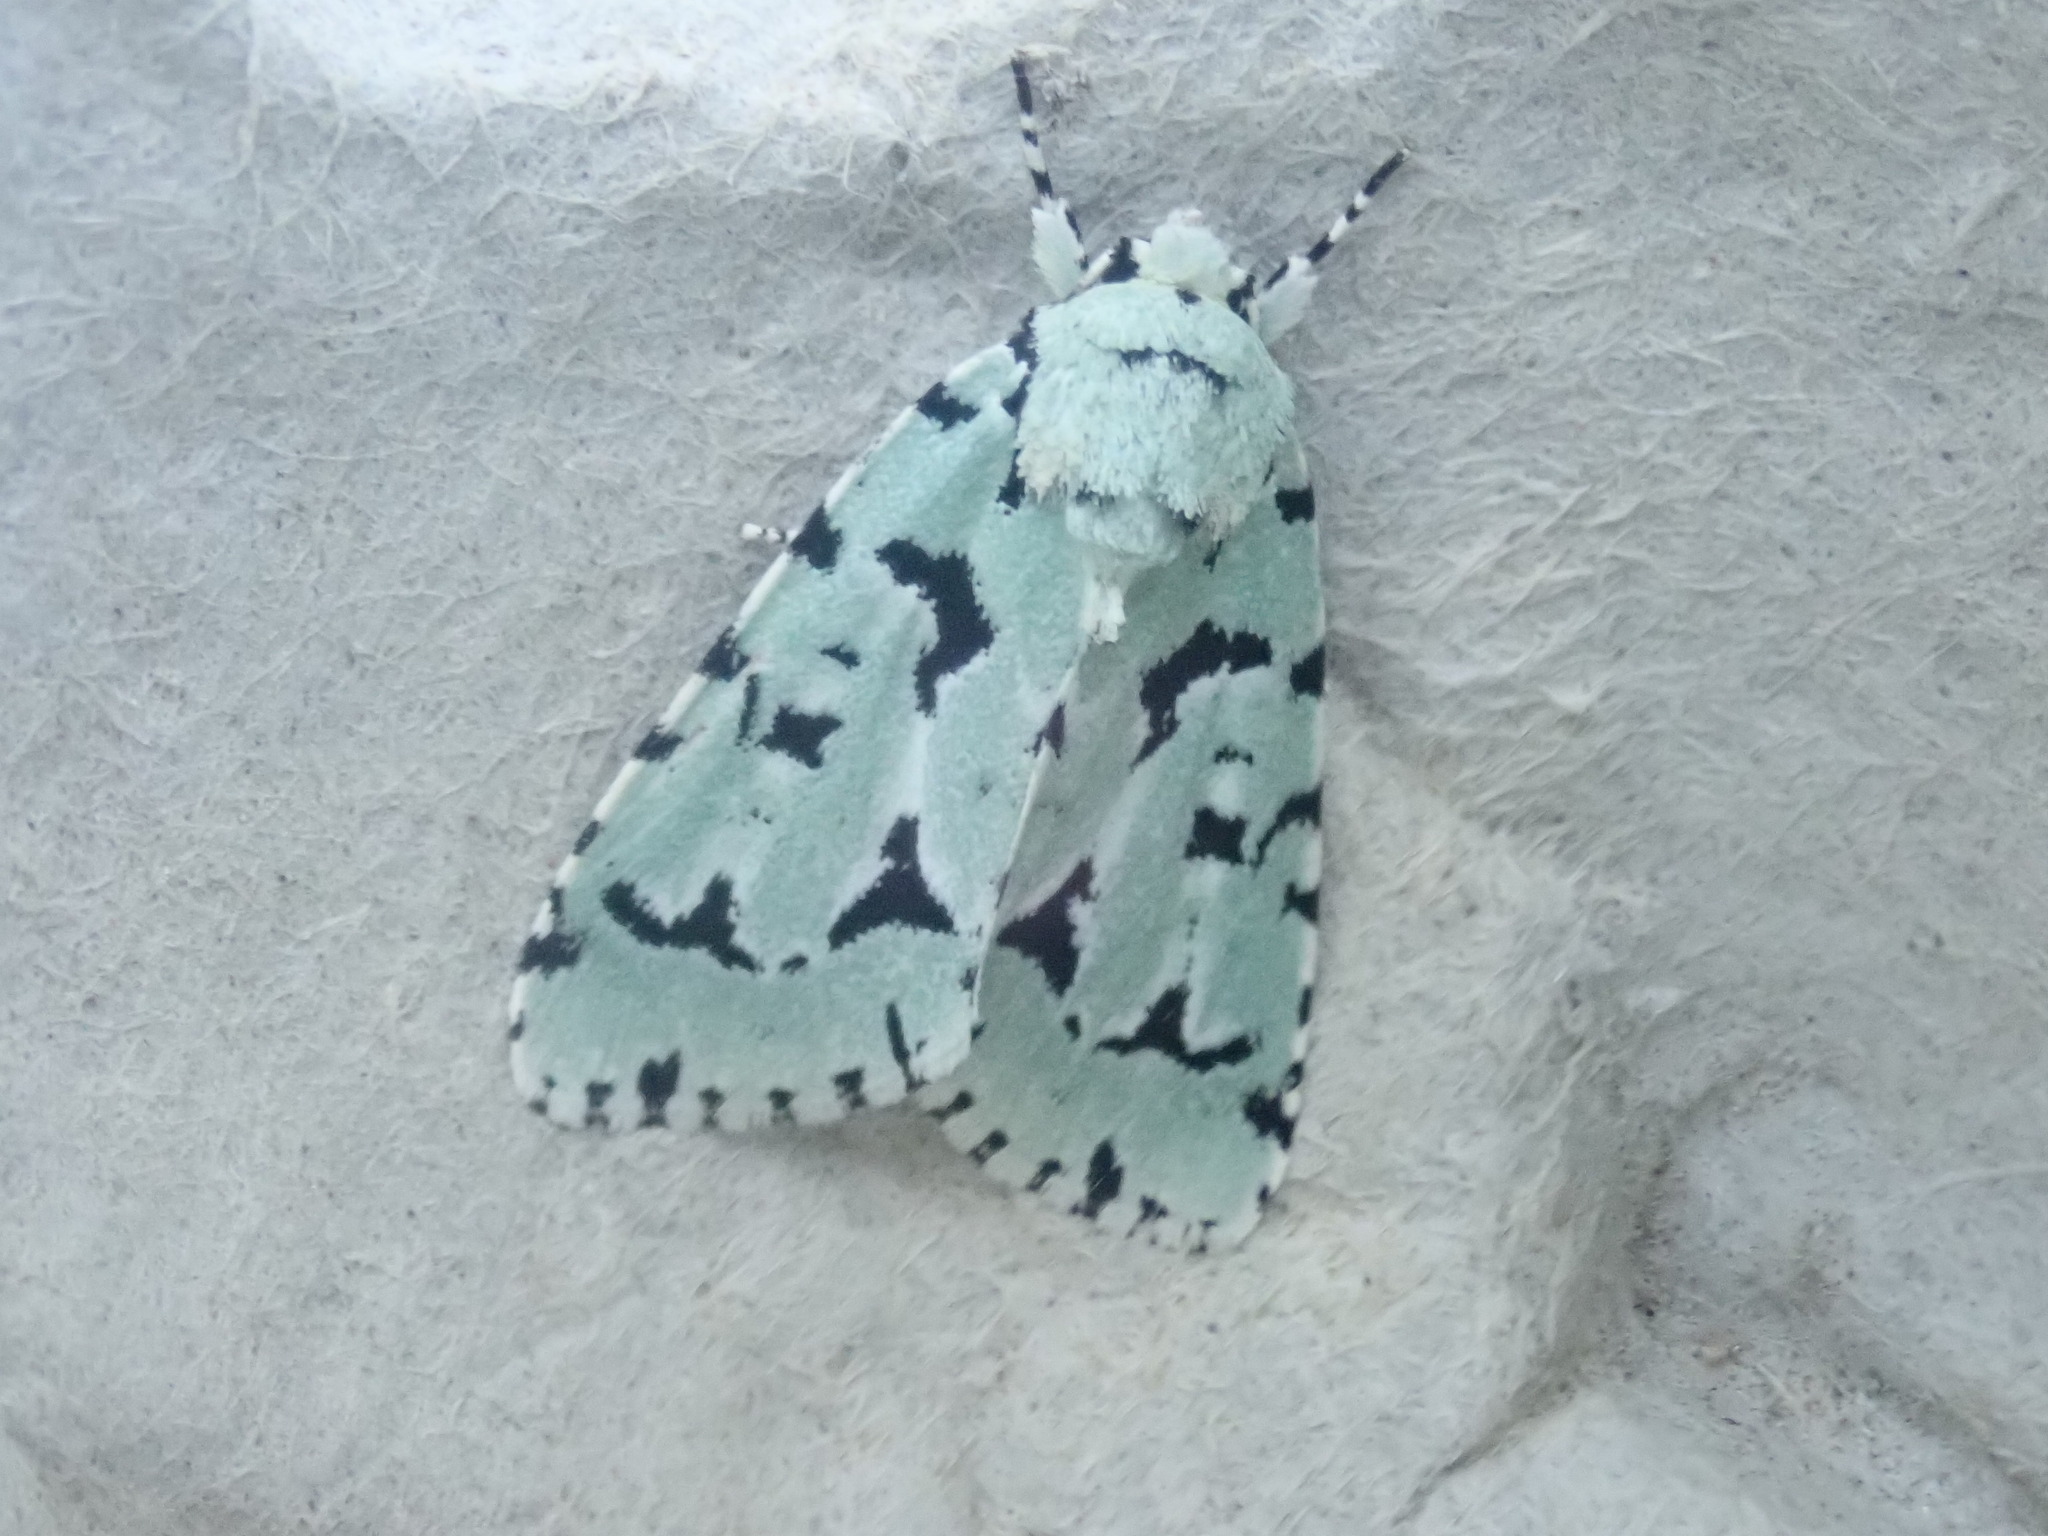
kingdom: Animalia
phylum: Arthropoda
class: Insecta
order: Lepidoptera
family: Noctuidae
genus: Acronicta
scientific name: Acronicta fallax
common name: Green marvel
